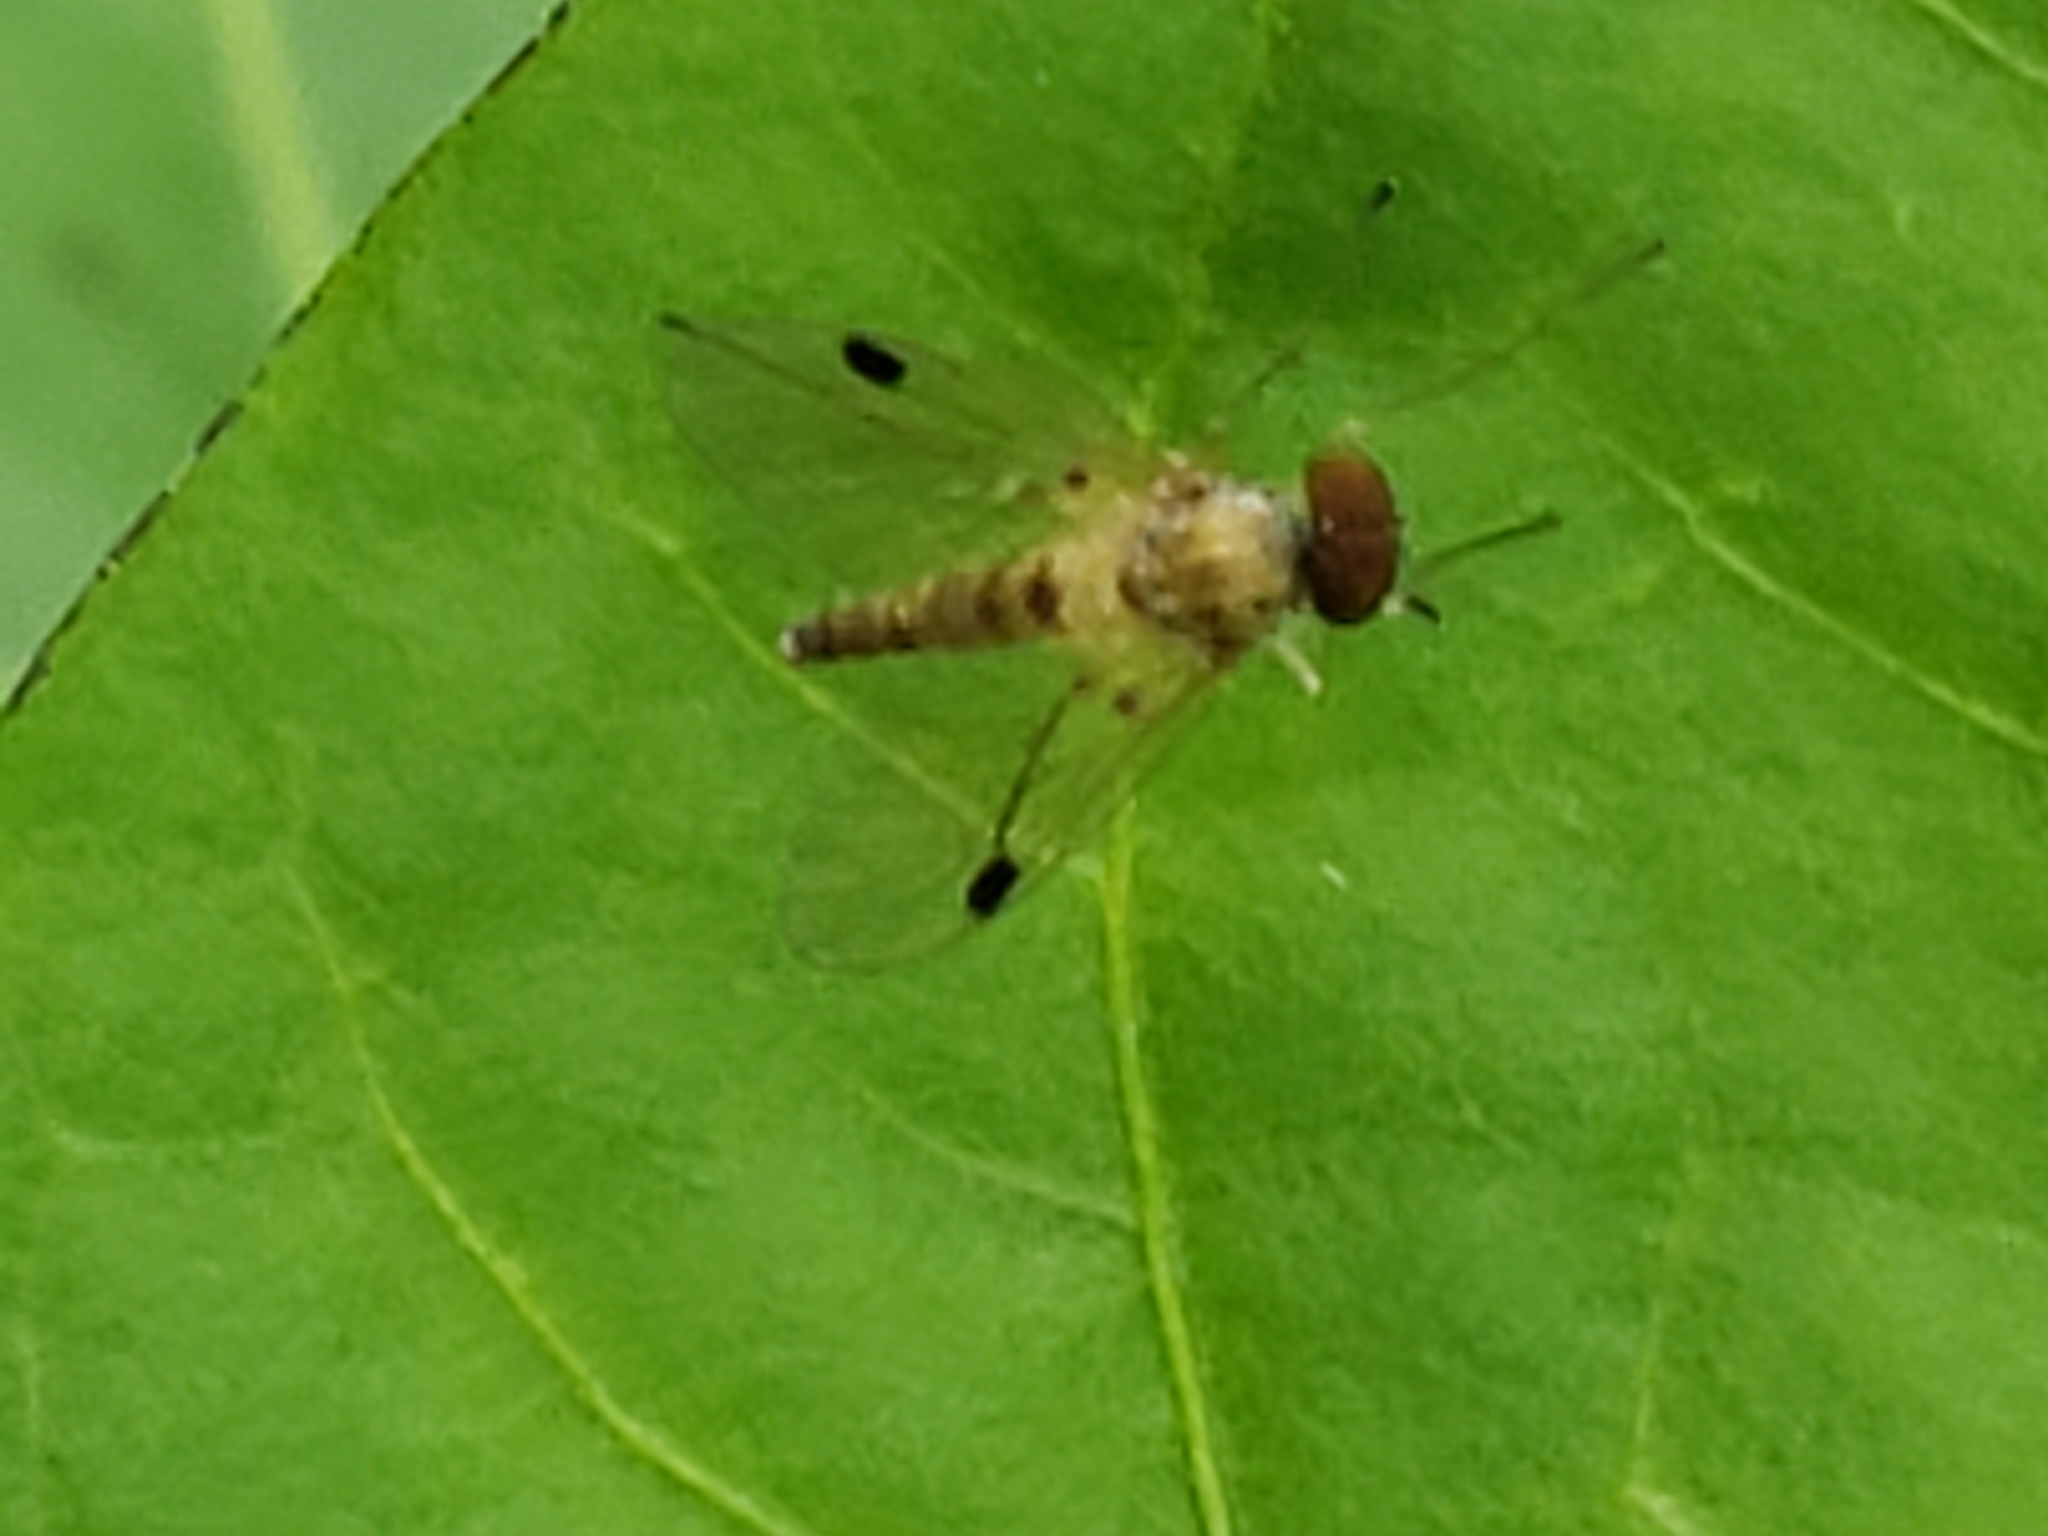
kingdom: Animalia
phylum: Arthropoda
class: Insecta
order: Diptera
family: Rhagionidae
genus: Chrysopilus
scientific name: Chrysopilus modestus
